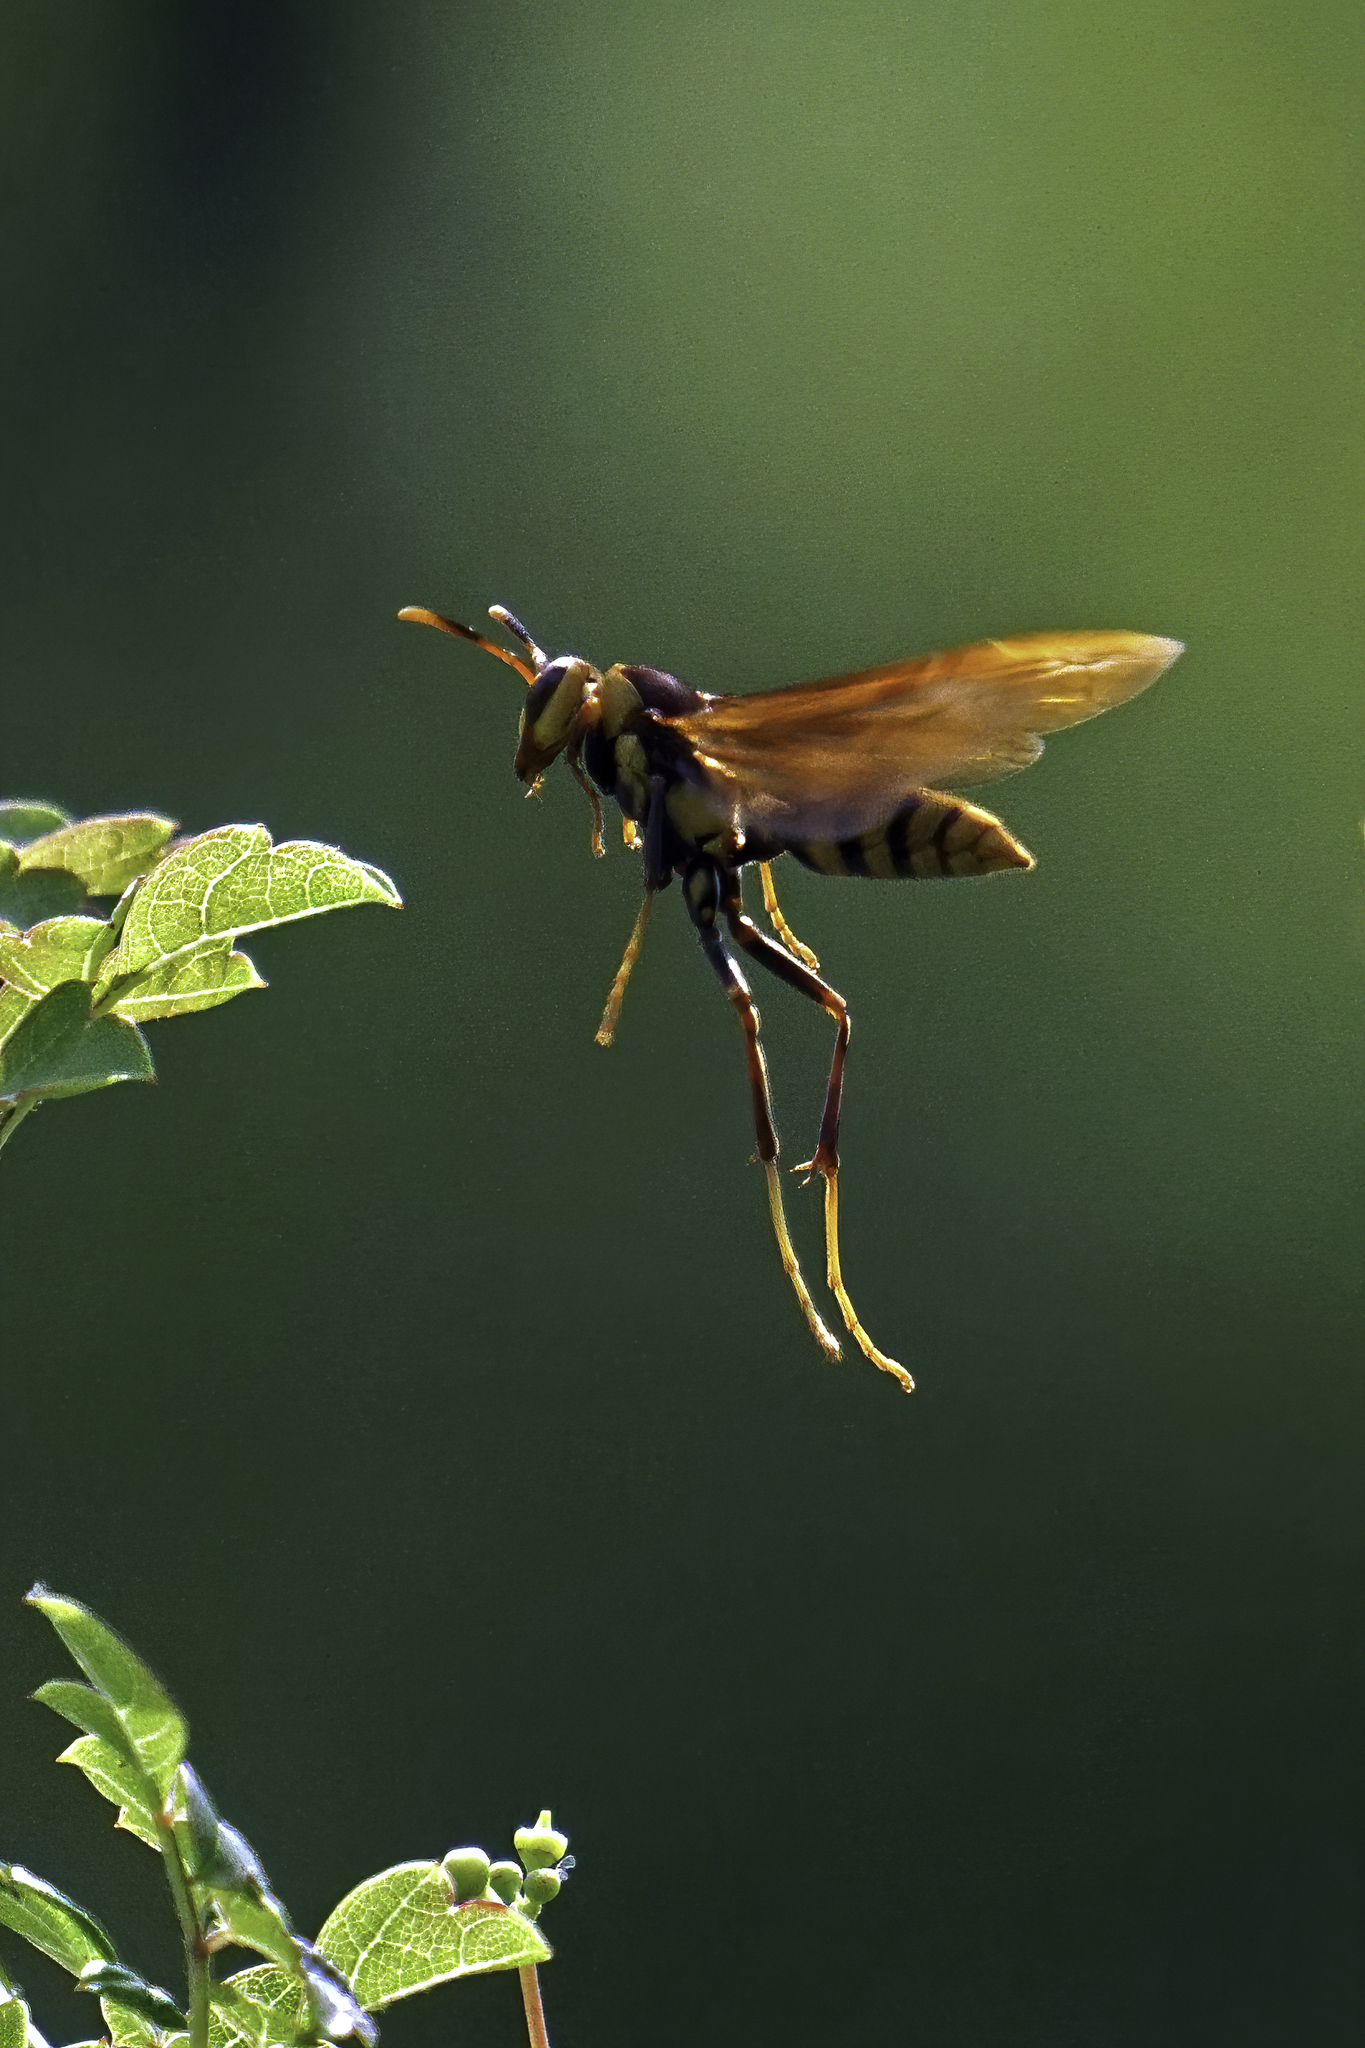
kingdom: Animalia
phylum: Arthropoda
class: Insecta
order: Hymenoptera
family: Eumenidae
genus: Polistes
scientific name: Polistes major
